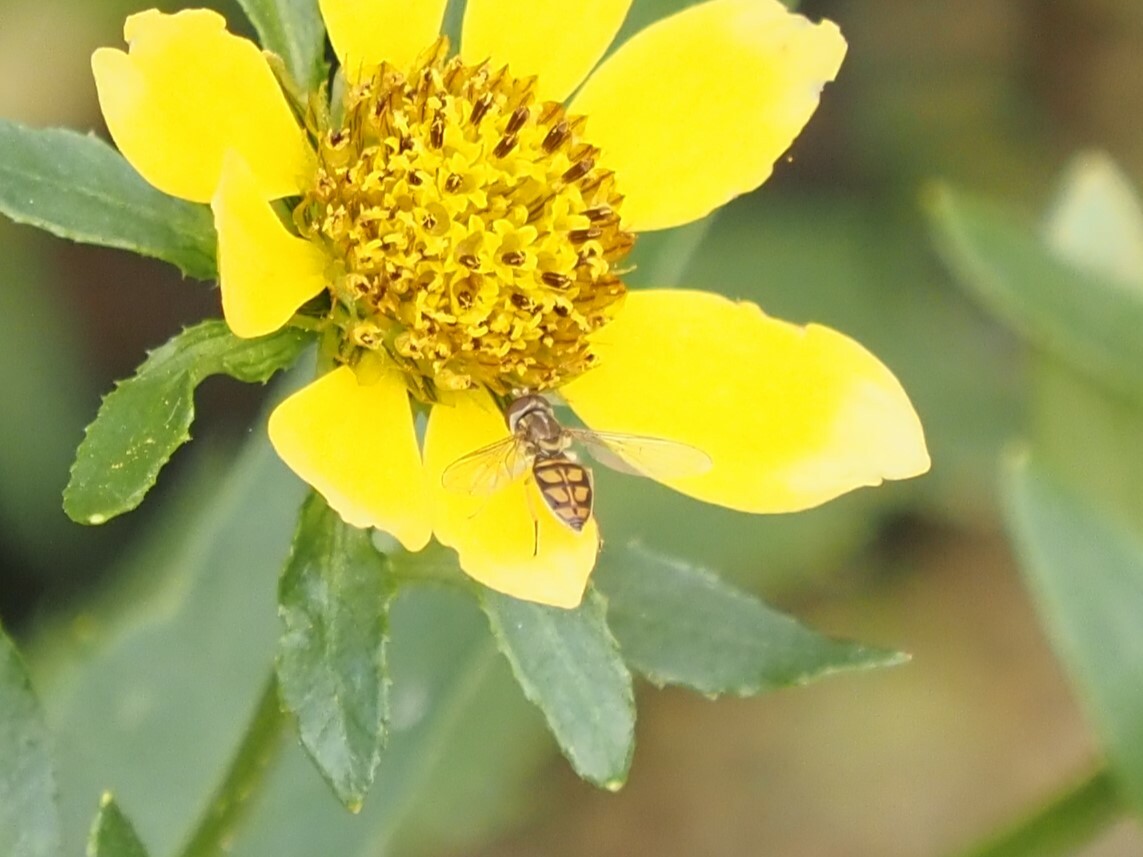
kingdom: Animalia
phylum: Arthropoda
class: Insecta
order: Diptera
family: Syrphidae
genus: Toxomerus
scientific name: Toxomerus marginatus
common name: Syrphid fly
